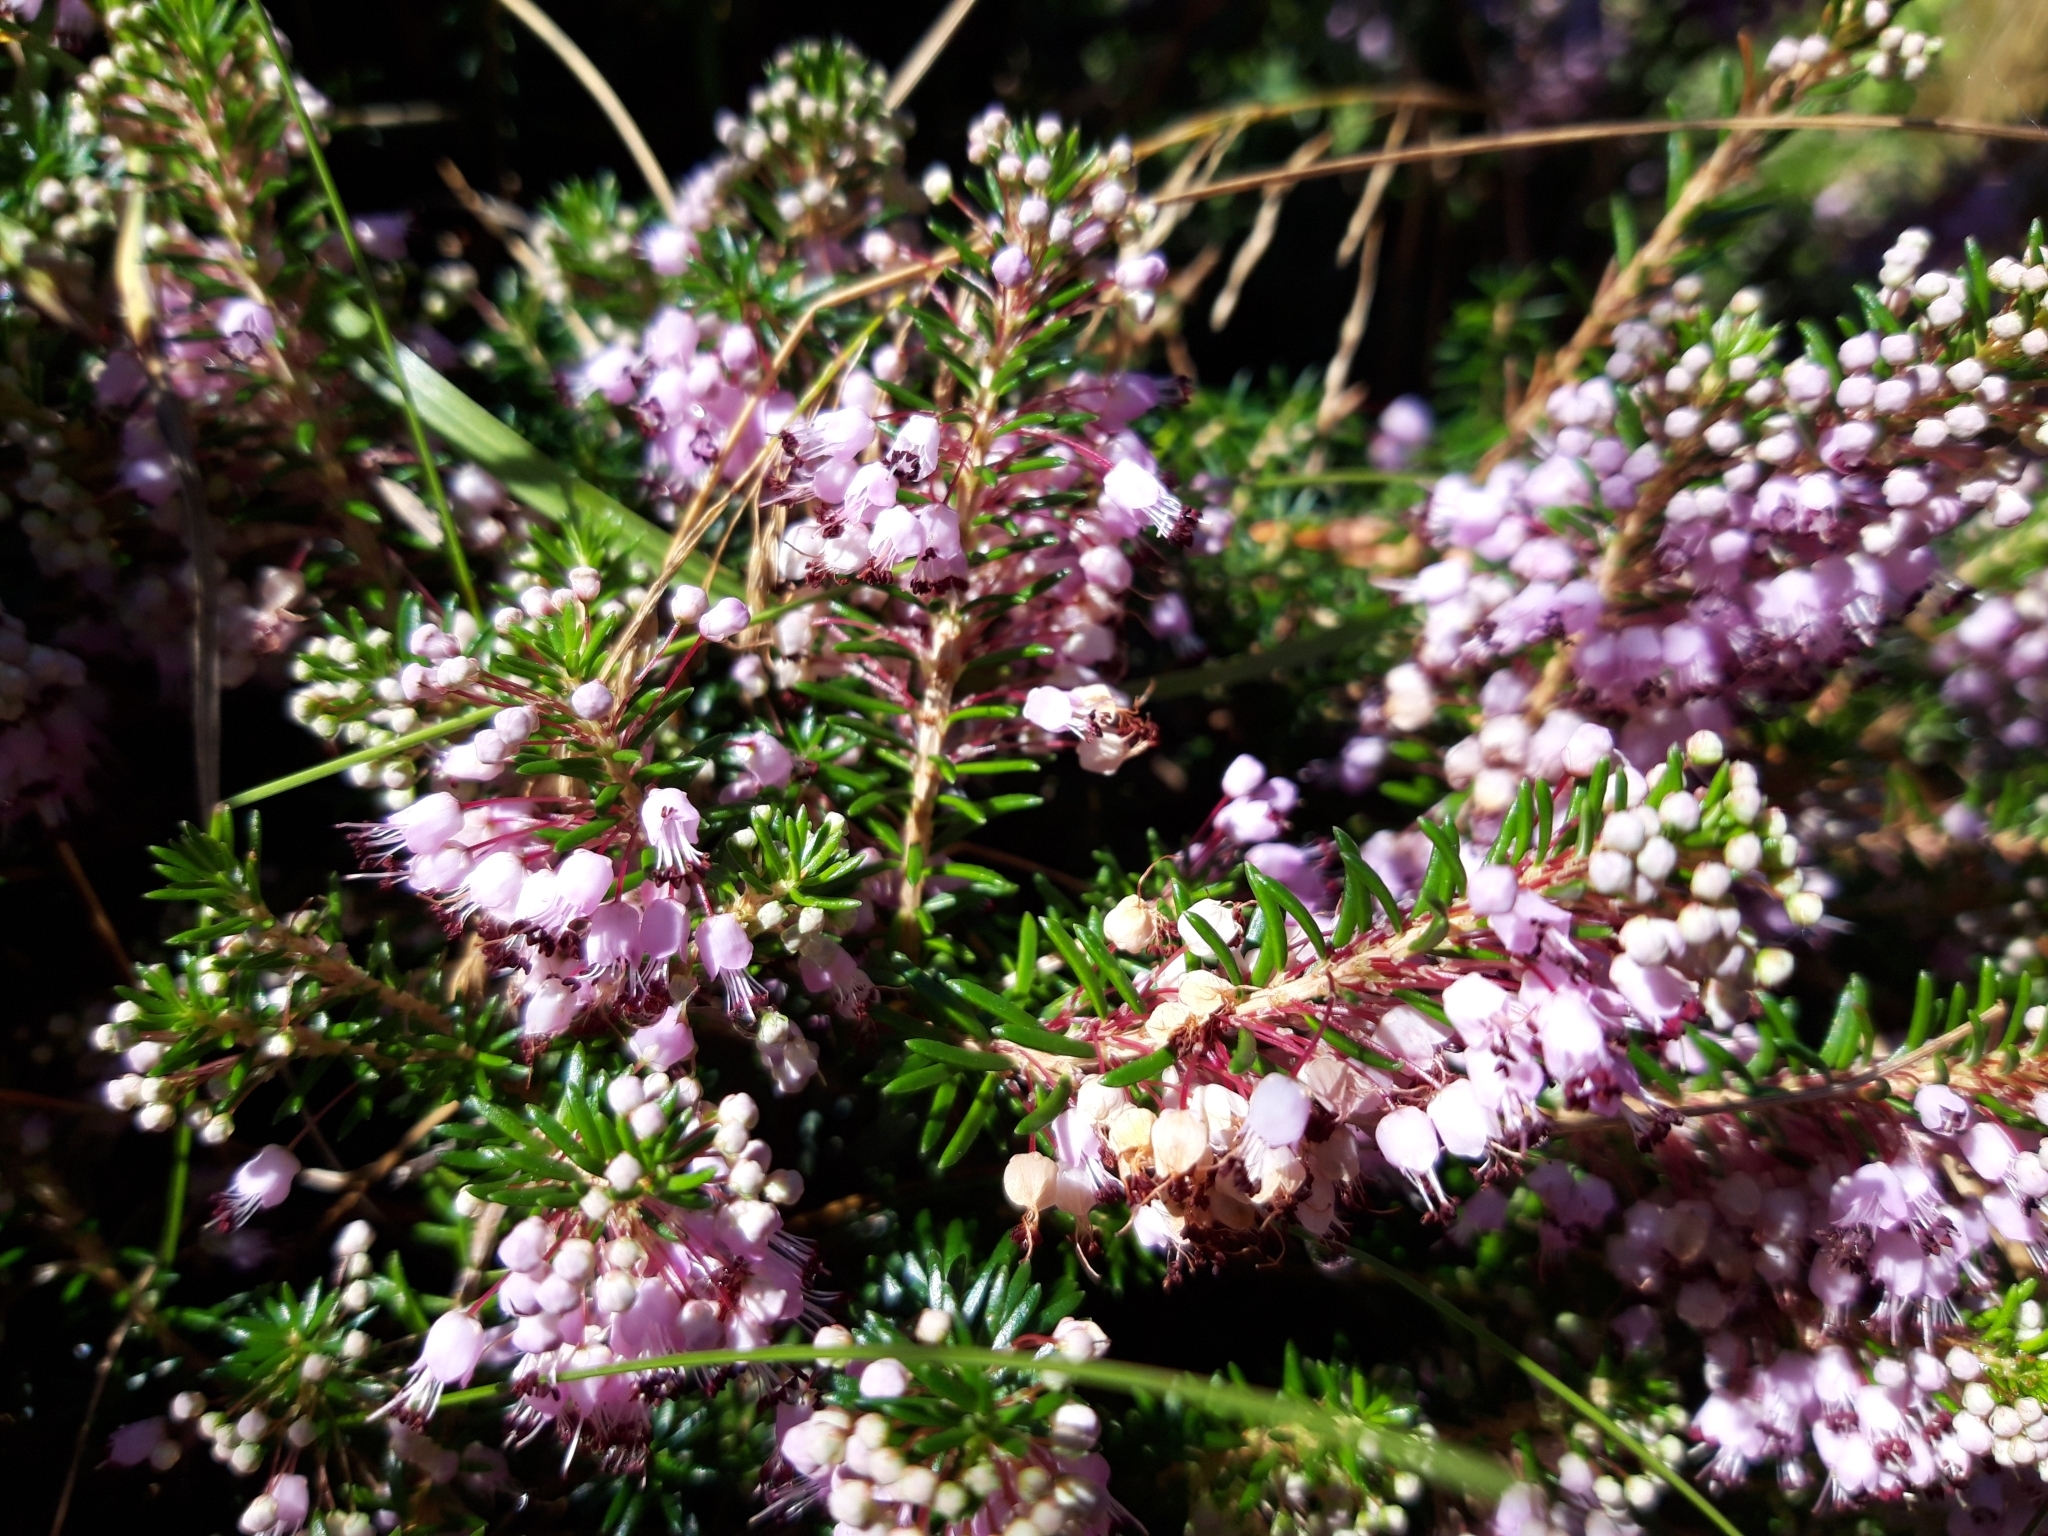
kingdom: Plantae
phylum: Tracheophyta
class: Magnoliopsida
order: Ericales
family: Ericaceae
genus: Erica
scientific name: Erica vagans
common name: Cornish heath
